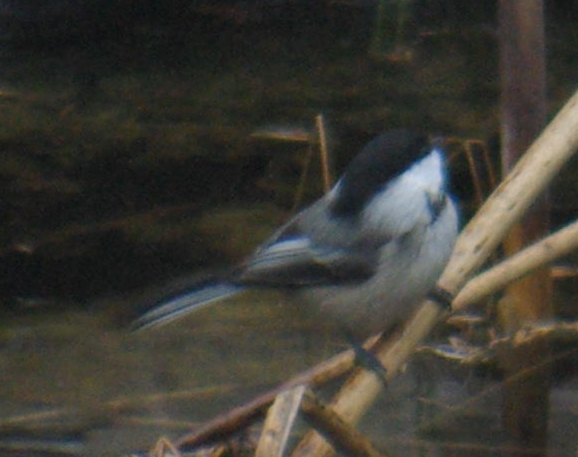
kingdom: Animalia
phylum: Chordata
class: Aves
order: Passeriformes
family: Paridae
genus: Poecile
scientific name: Poecile atricapillus
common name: Black-capped chickadee
